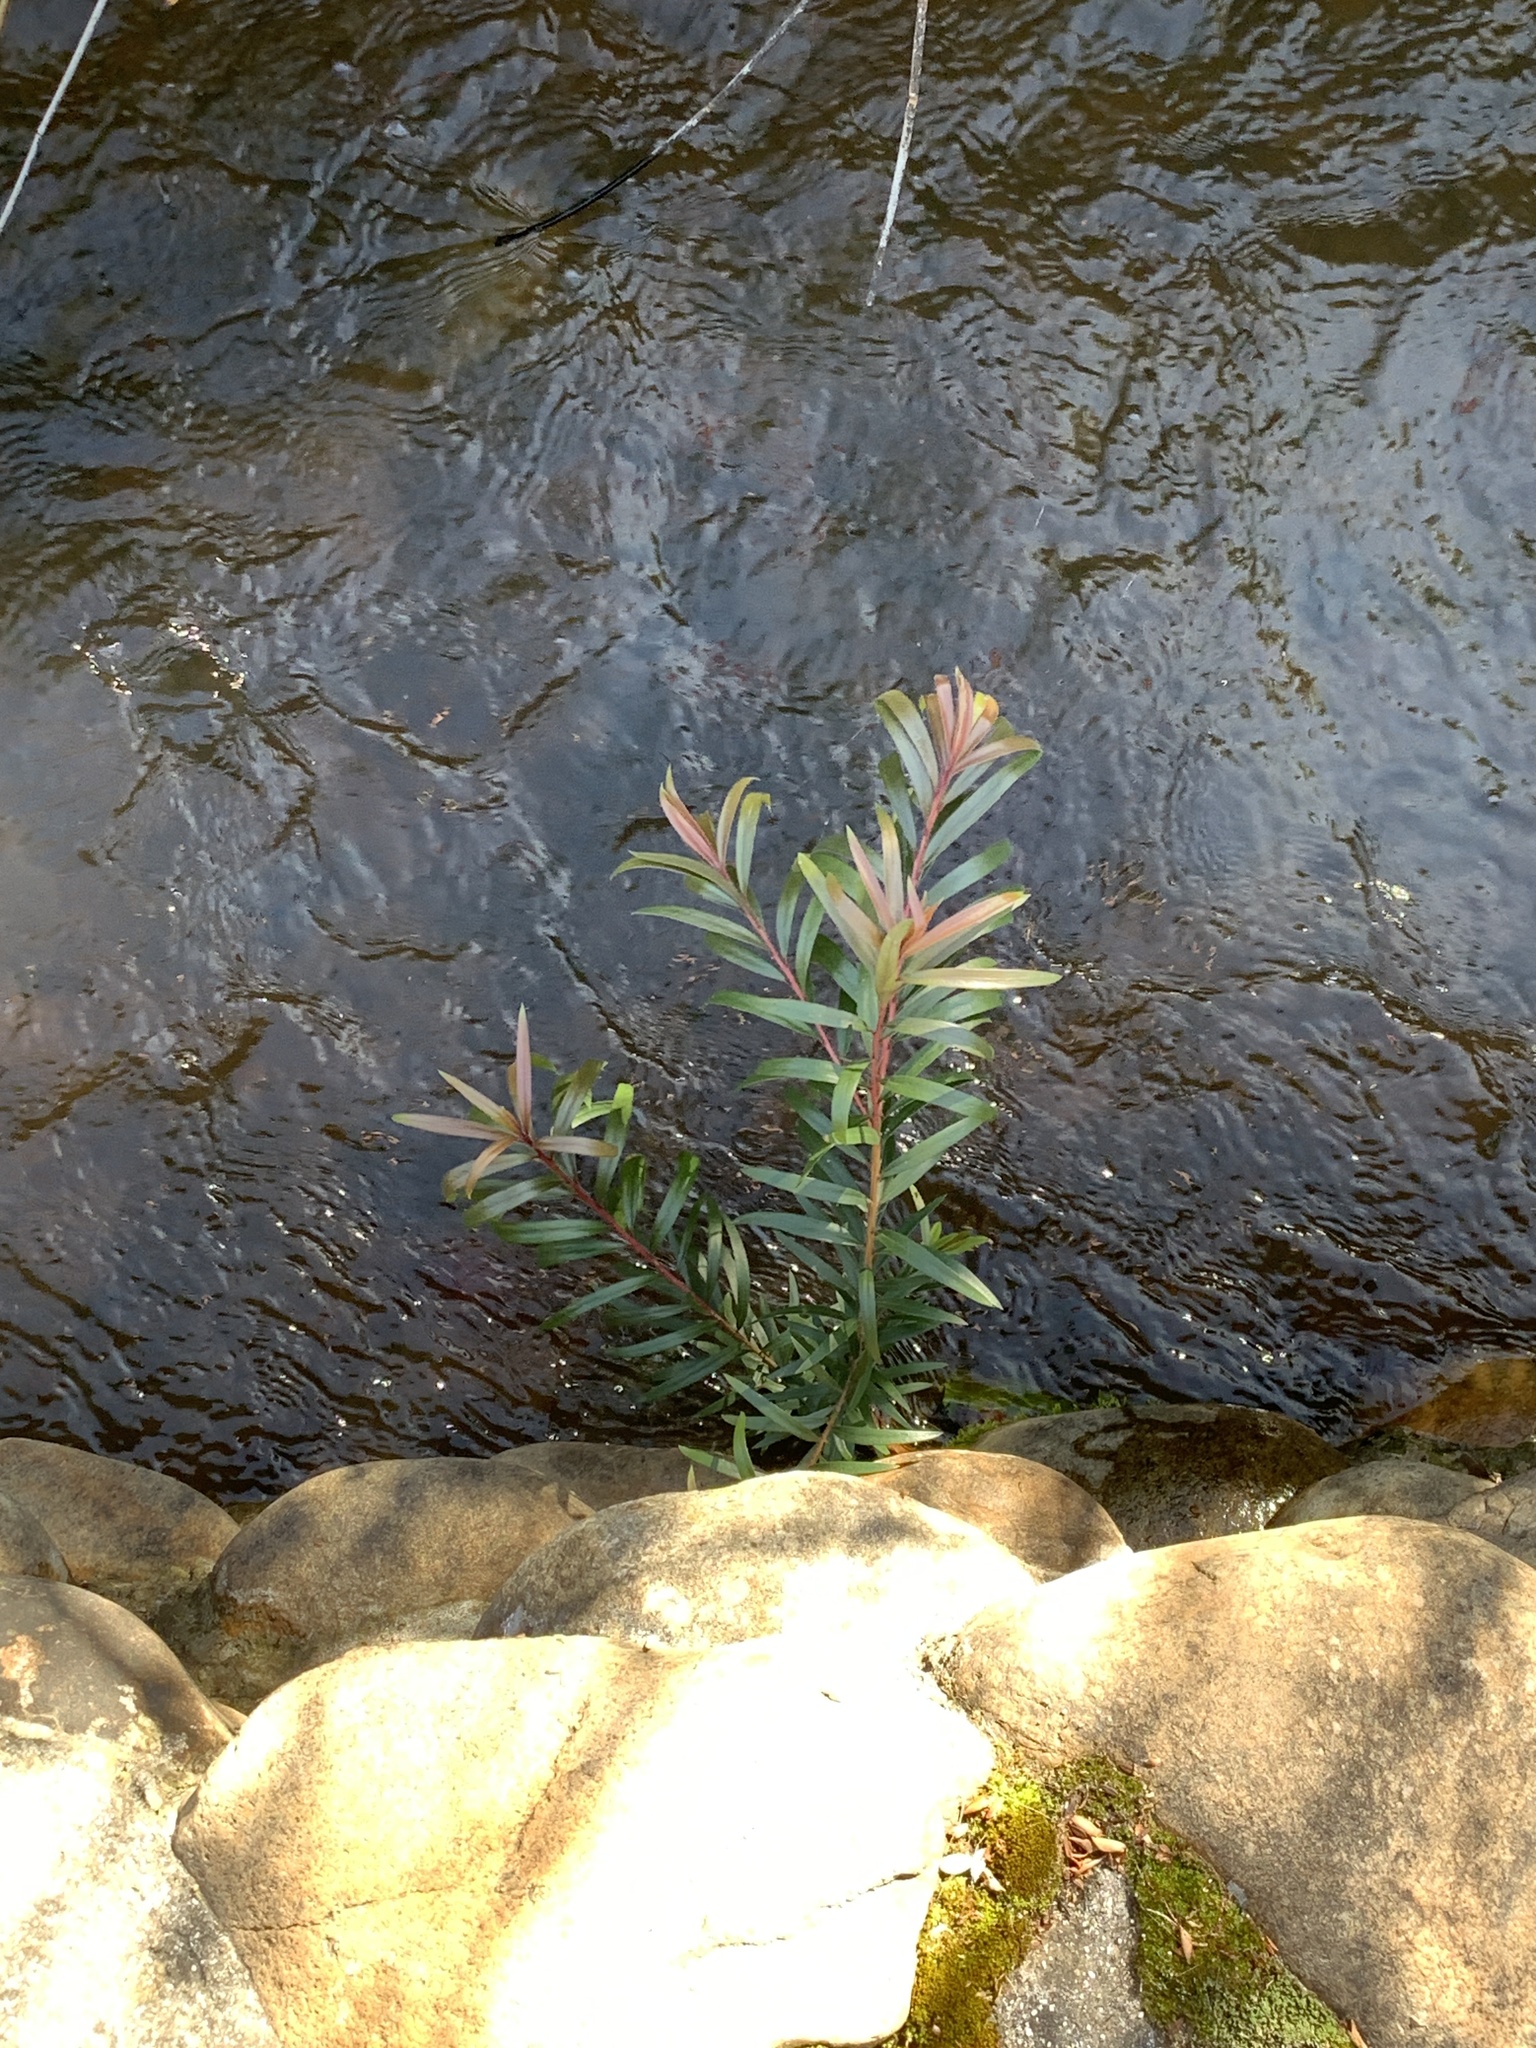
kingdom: Plantae
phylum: Tracheophyta
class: Magnoliopsida
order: Myrtales
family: Myrtaceae
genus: Callistemon
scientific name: Callistemon viminalis
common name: Drooping bottlebrush
